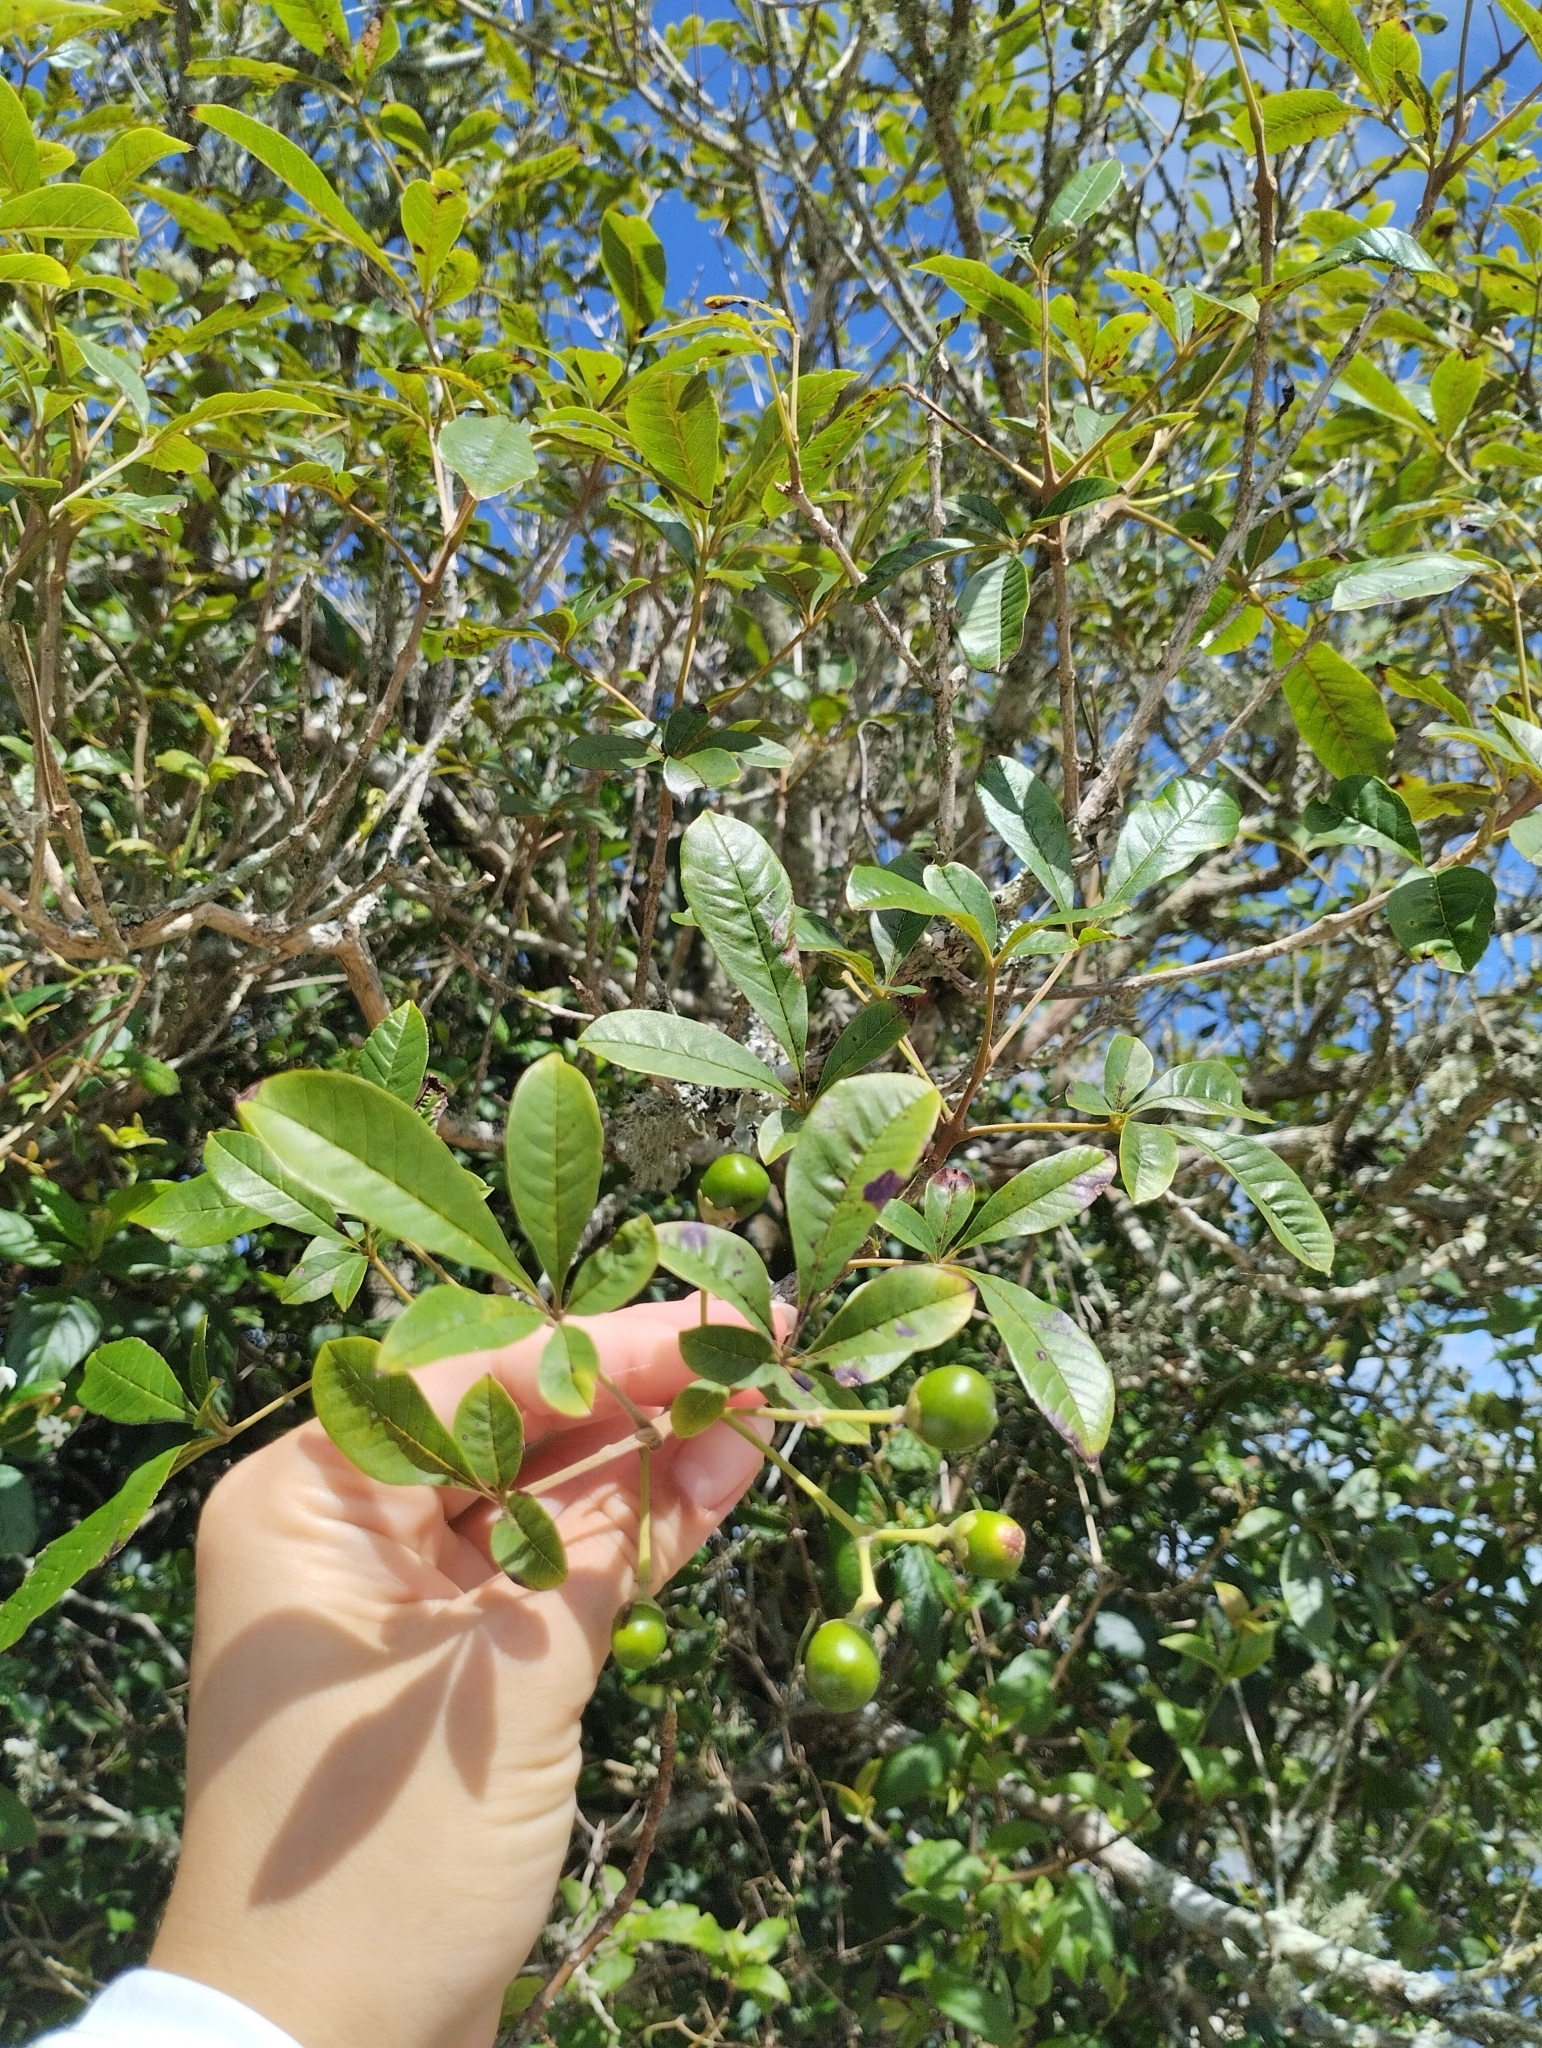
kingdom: Plantae
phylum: Tracheophyta
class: Magnoliopsida
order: Lamiales
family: Lamiaceae
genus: Vitex
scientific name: Vitex megapotamica
